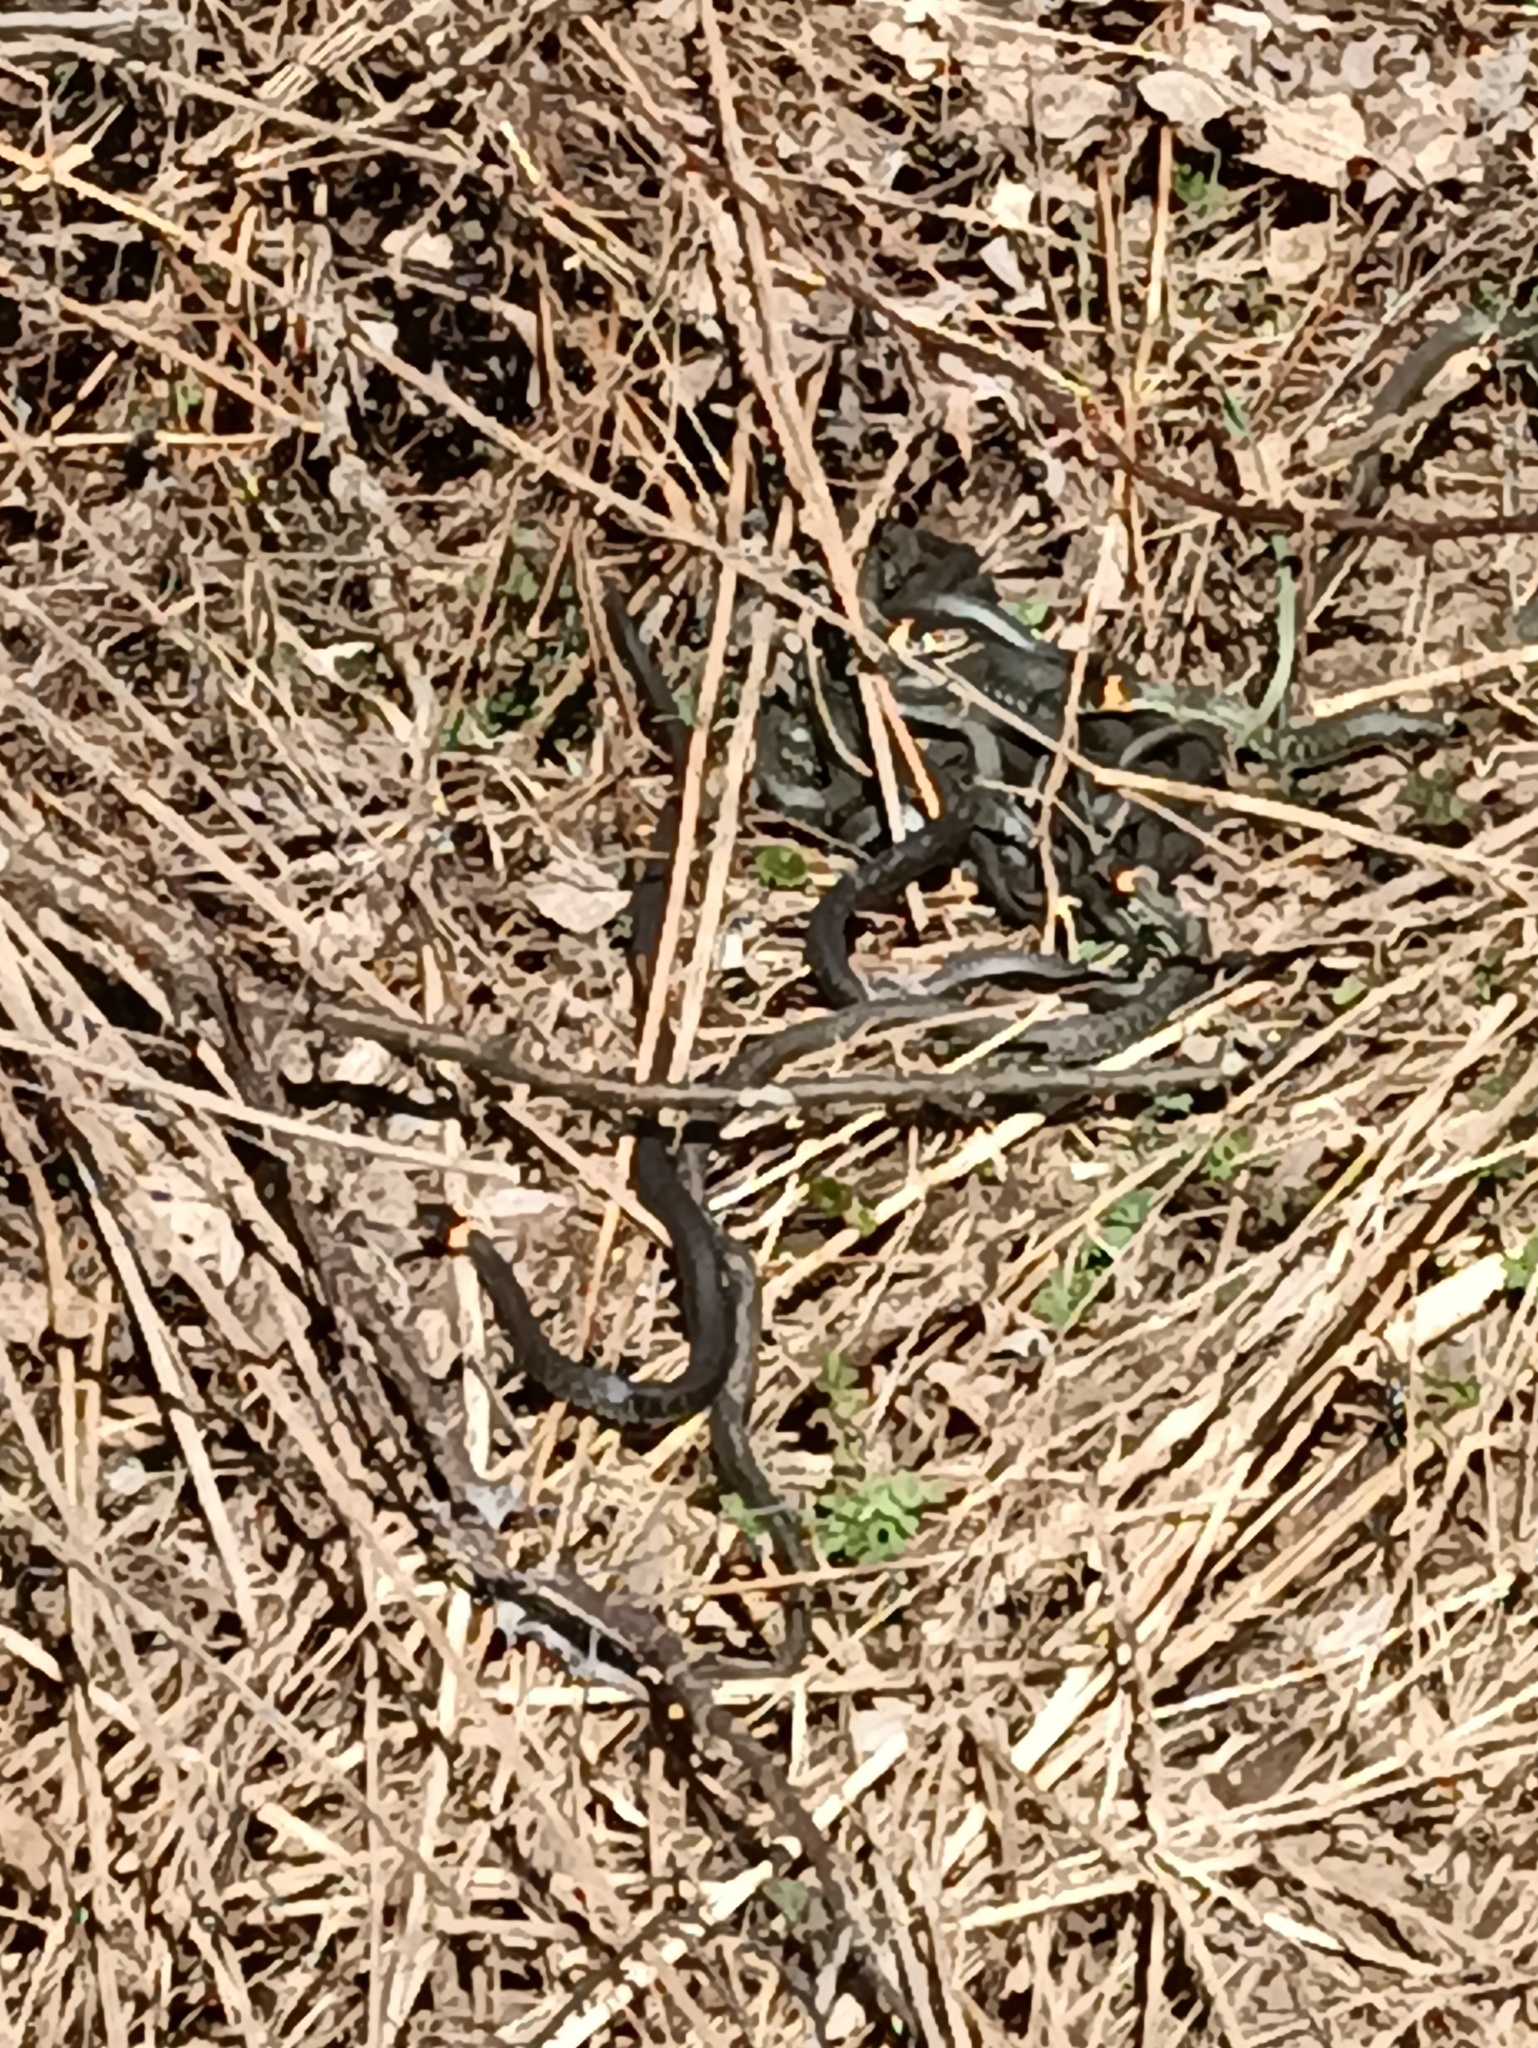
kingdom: Animalia
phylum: Chordata
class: Squamata
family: Colubridae
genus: Natrix
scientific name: Natrix natrix
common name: Grass snake
